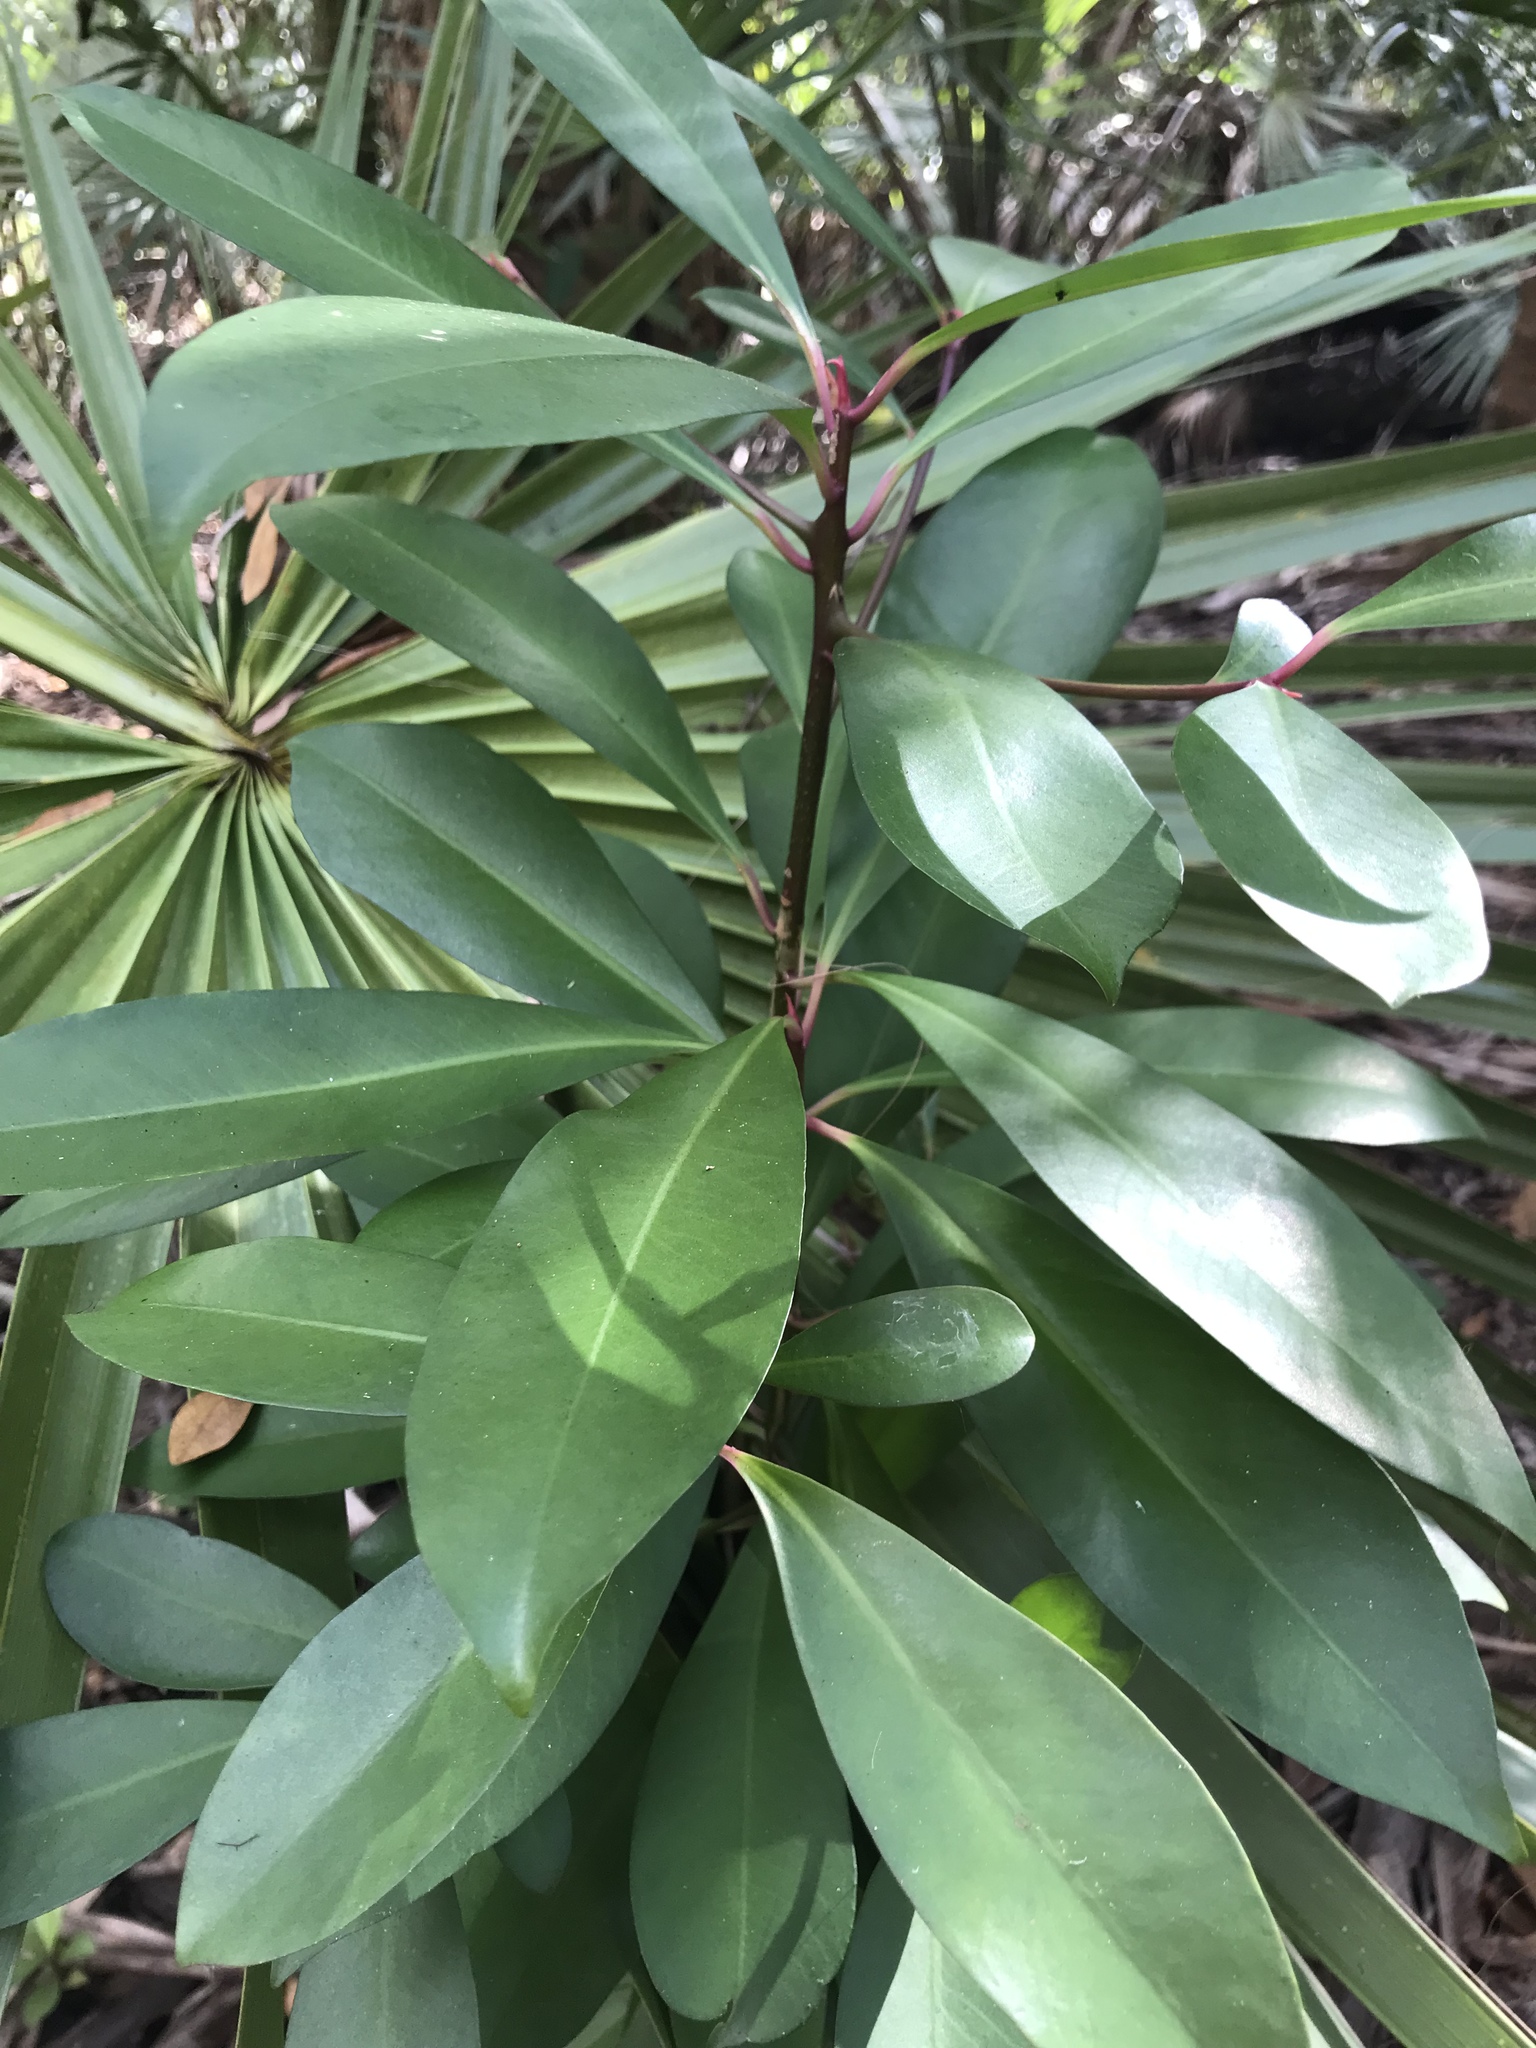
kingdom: Plantae
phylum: Tracheophyta
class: Magnoliopsida
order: Ericales
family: Primulaceae
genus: Ardisia
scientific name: Ardisia elliptica
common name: Shoebutton
